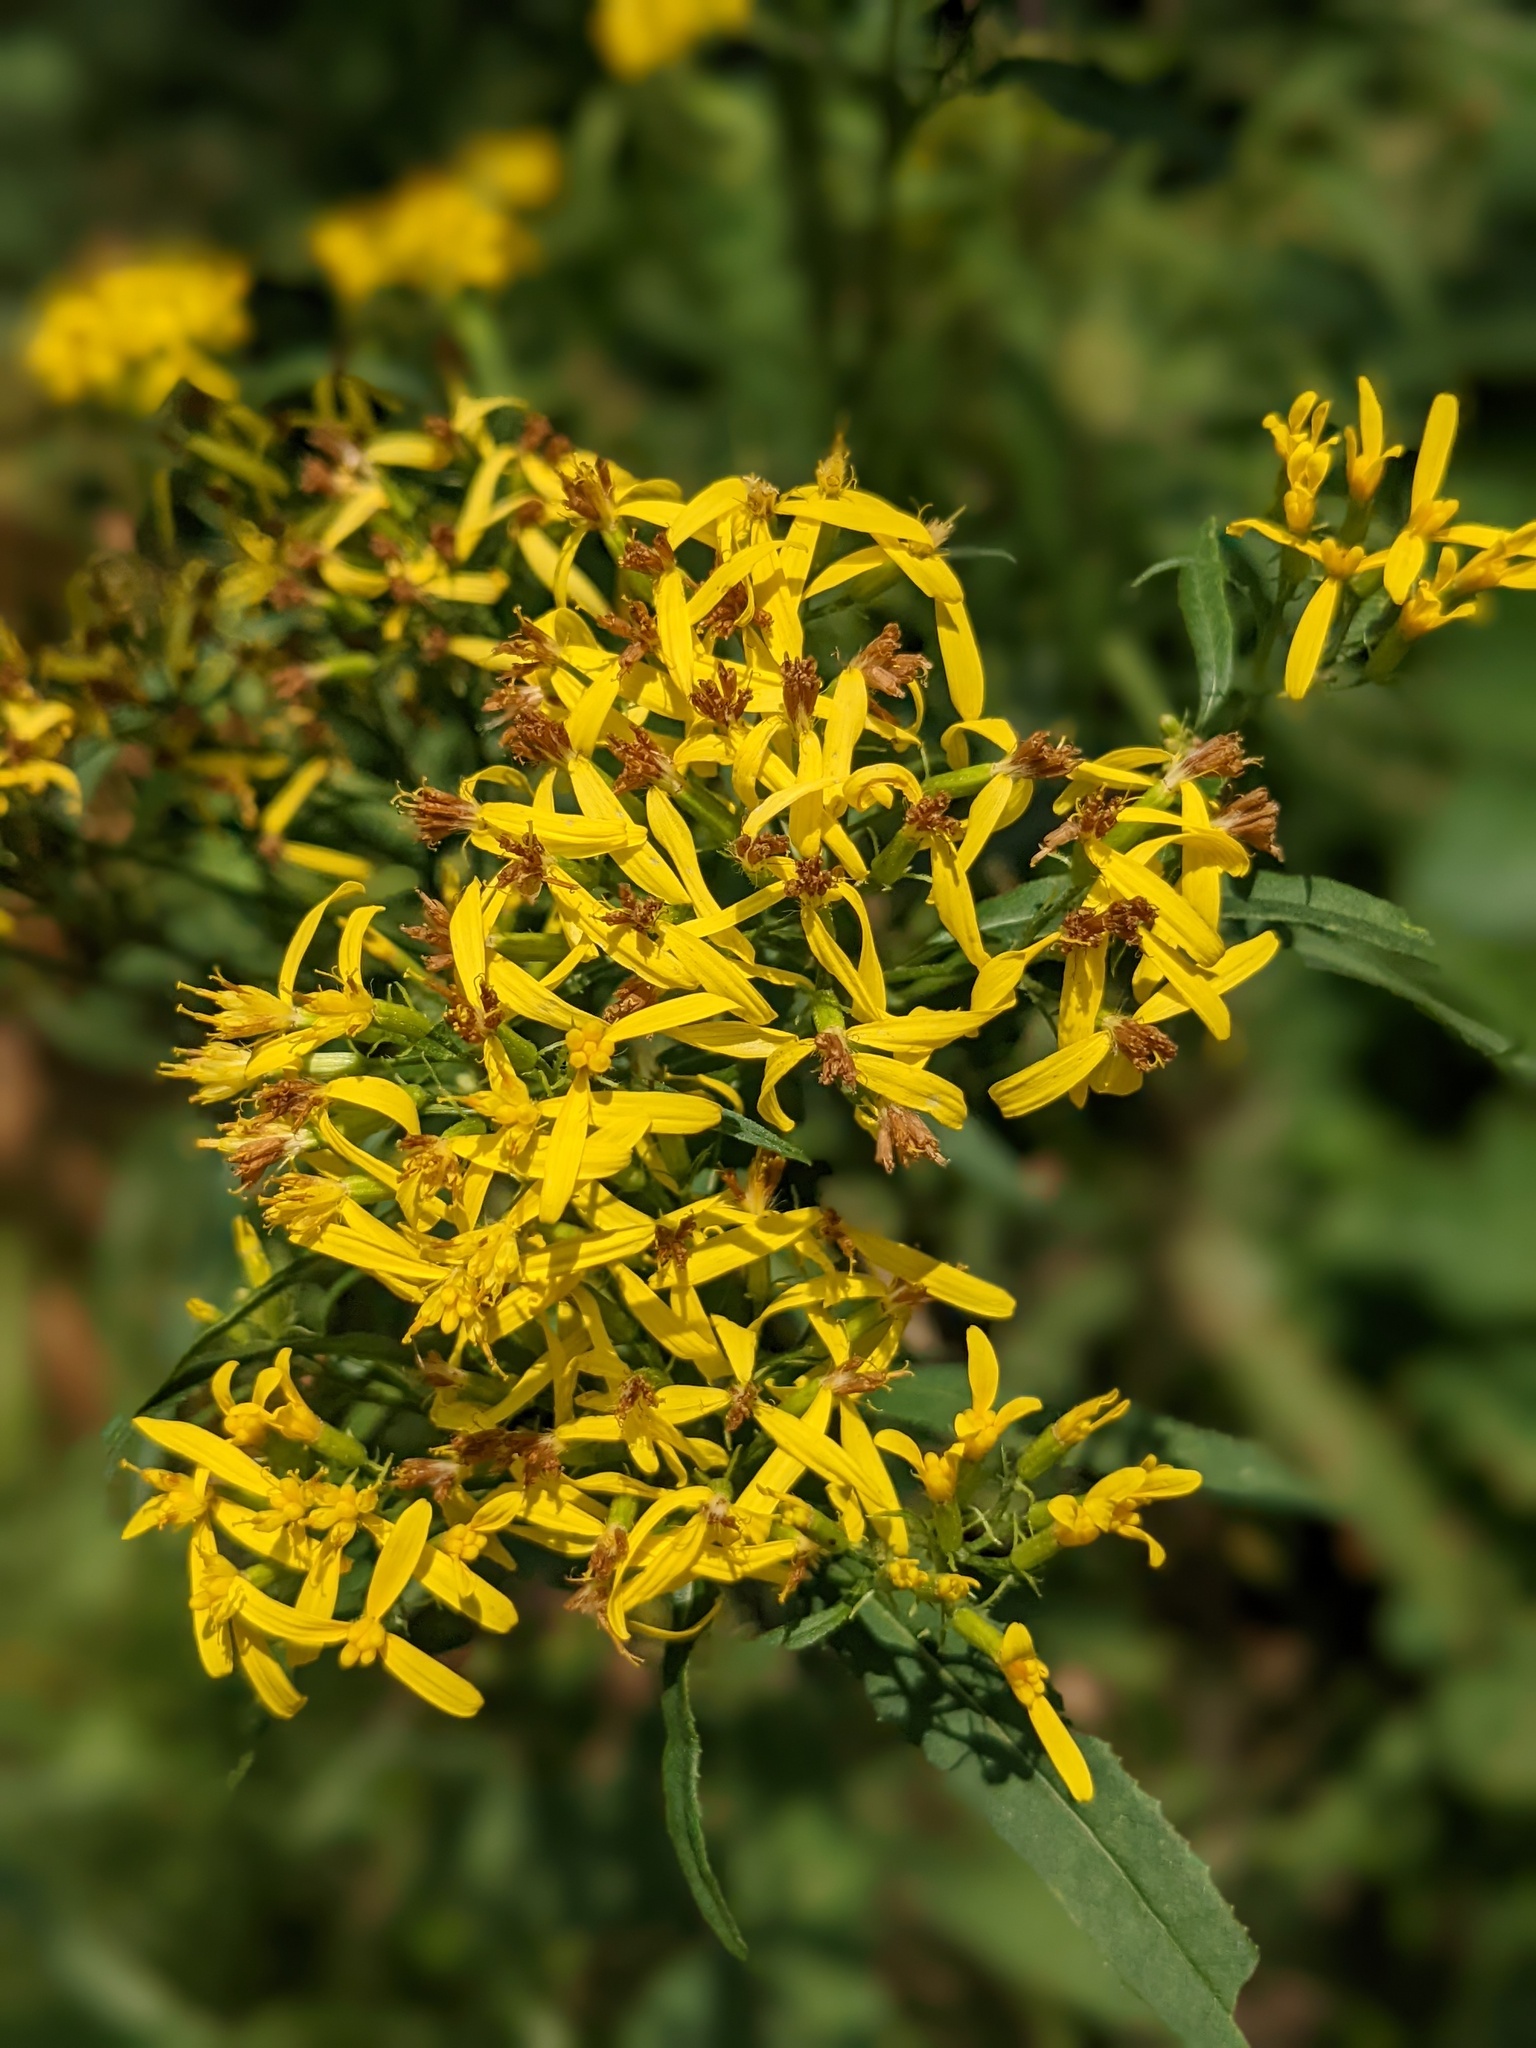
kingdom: Plantae
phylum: Tracheophyta
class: Magnoliopsida
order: Asterales
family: Asteraceae
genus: Senecio
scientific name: Senecio ovatus
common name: Wood ragwort
